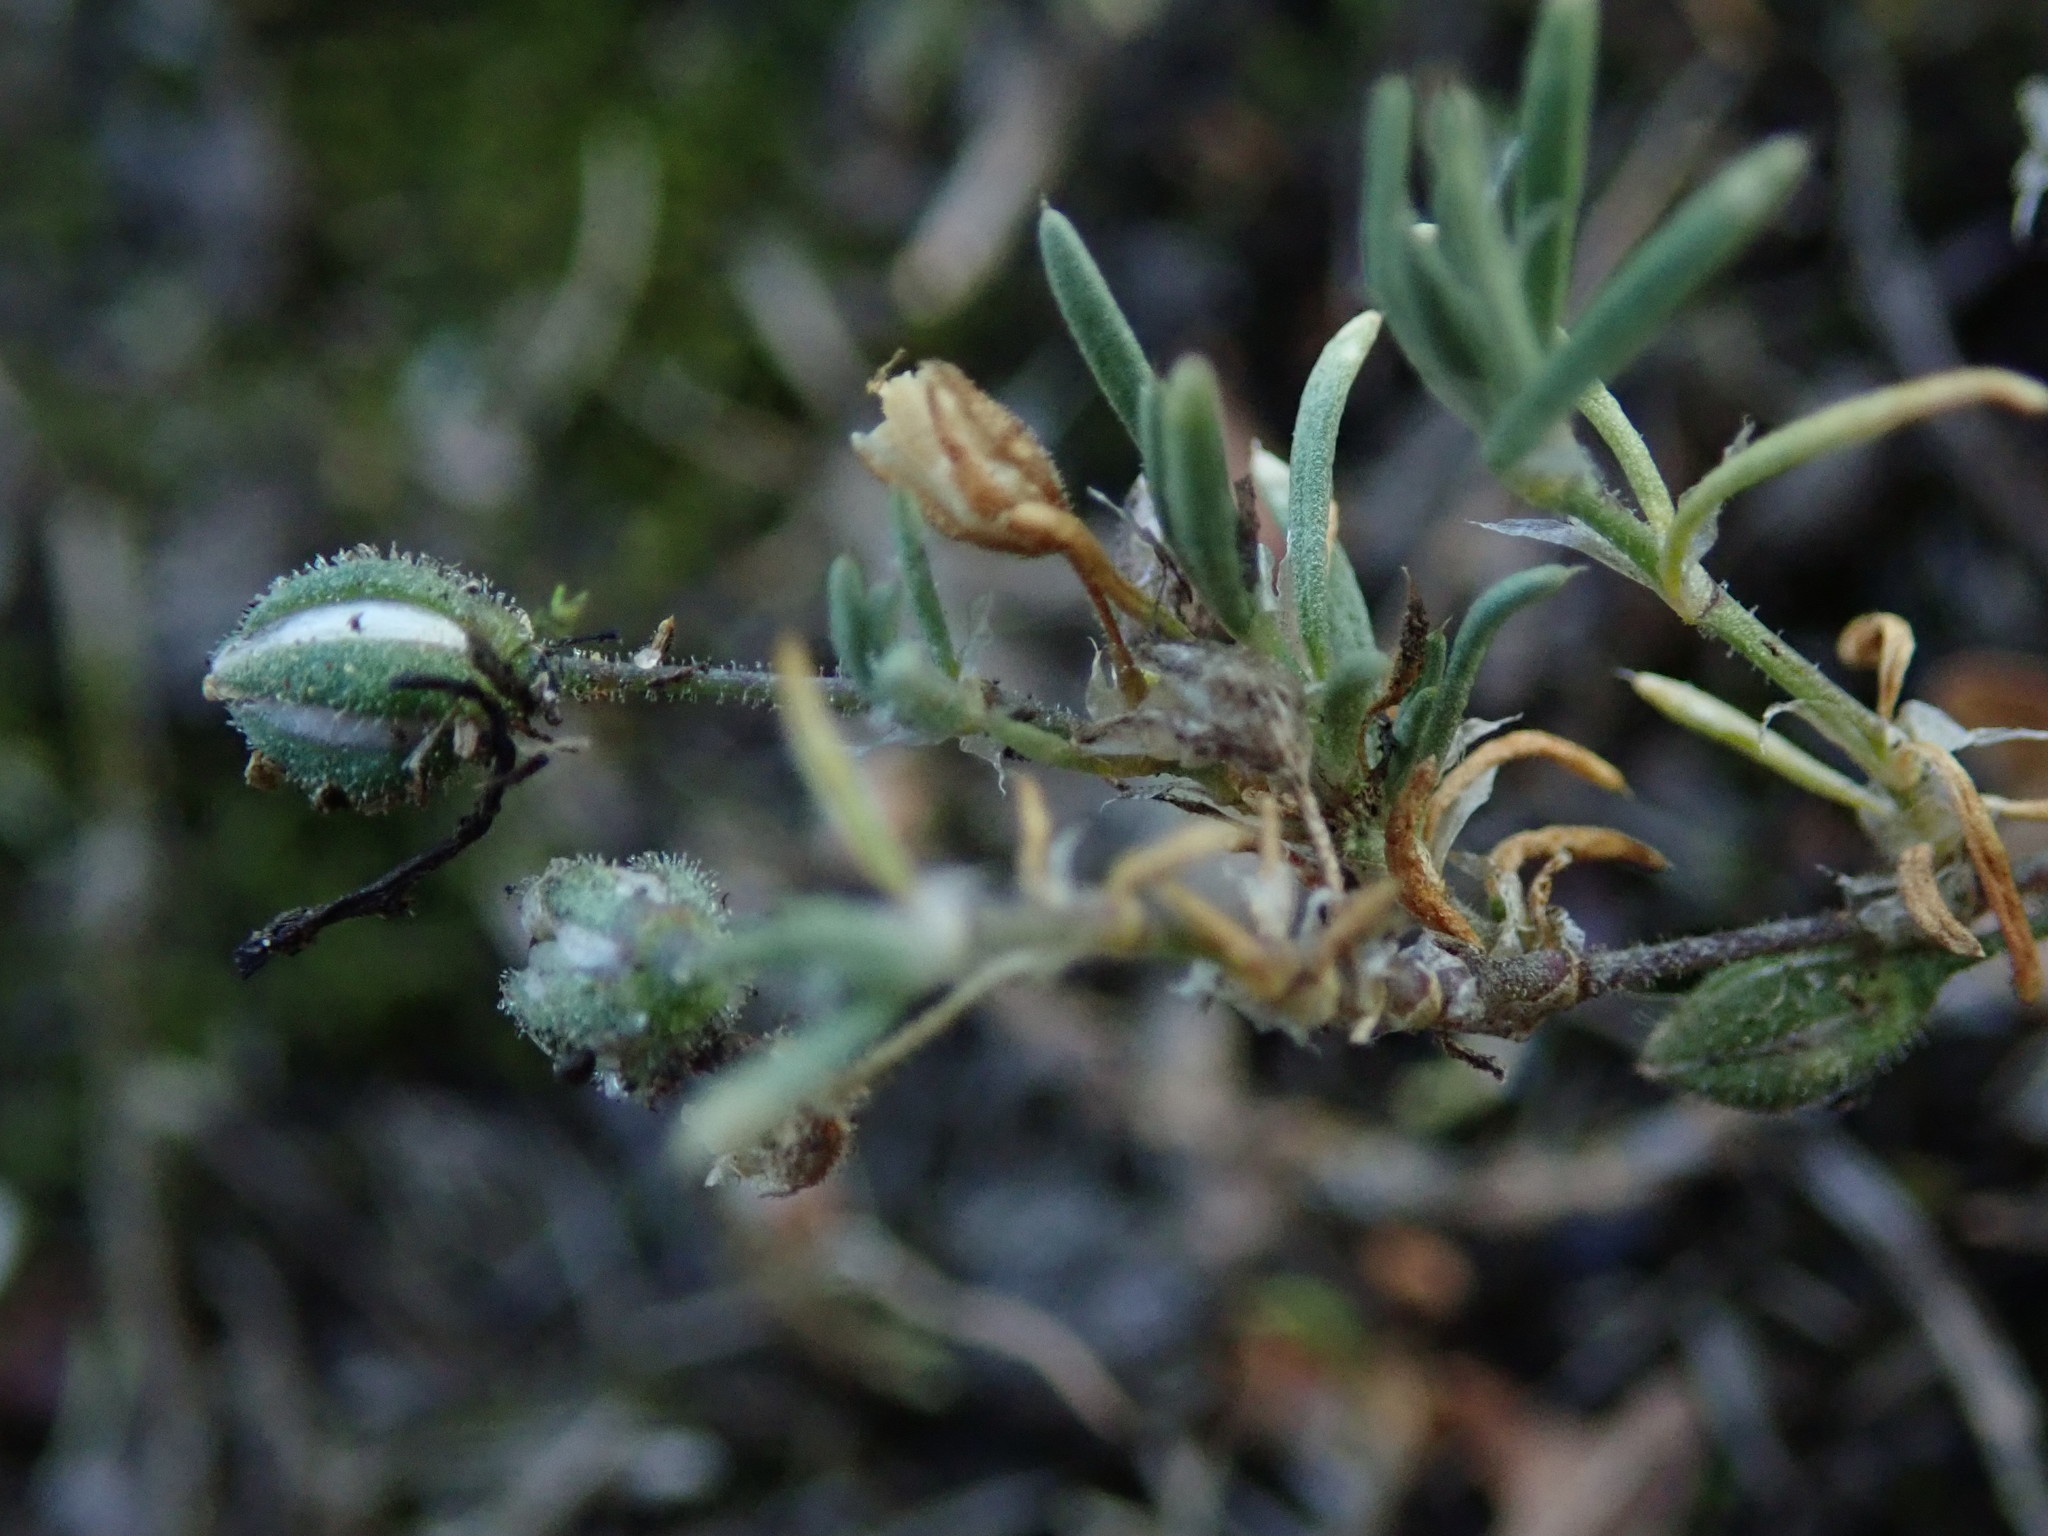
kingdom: Plantae
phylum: Tracheophyta
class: Magnoliopsida
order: Caryophyllales
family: Caryophyllaceae
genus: Spergularia
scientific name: Spergularia rubra
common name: Red sand-spurrey
